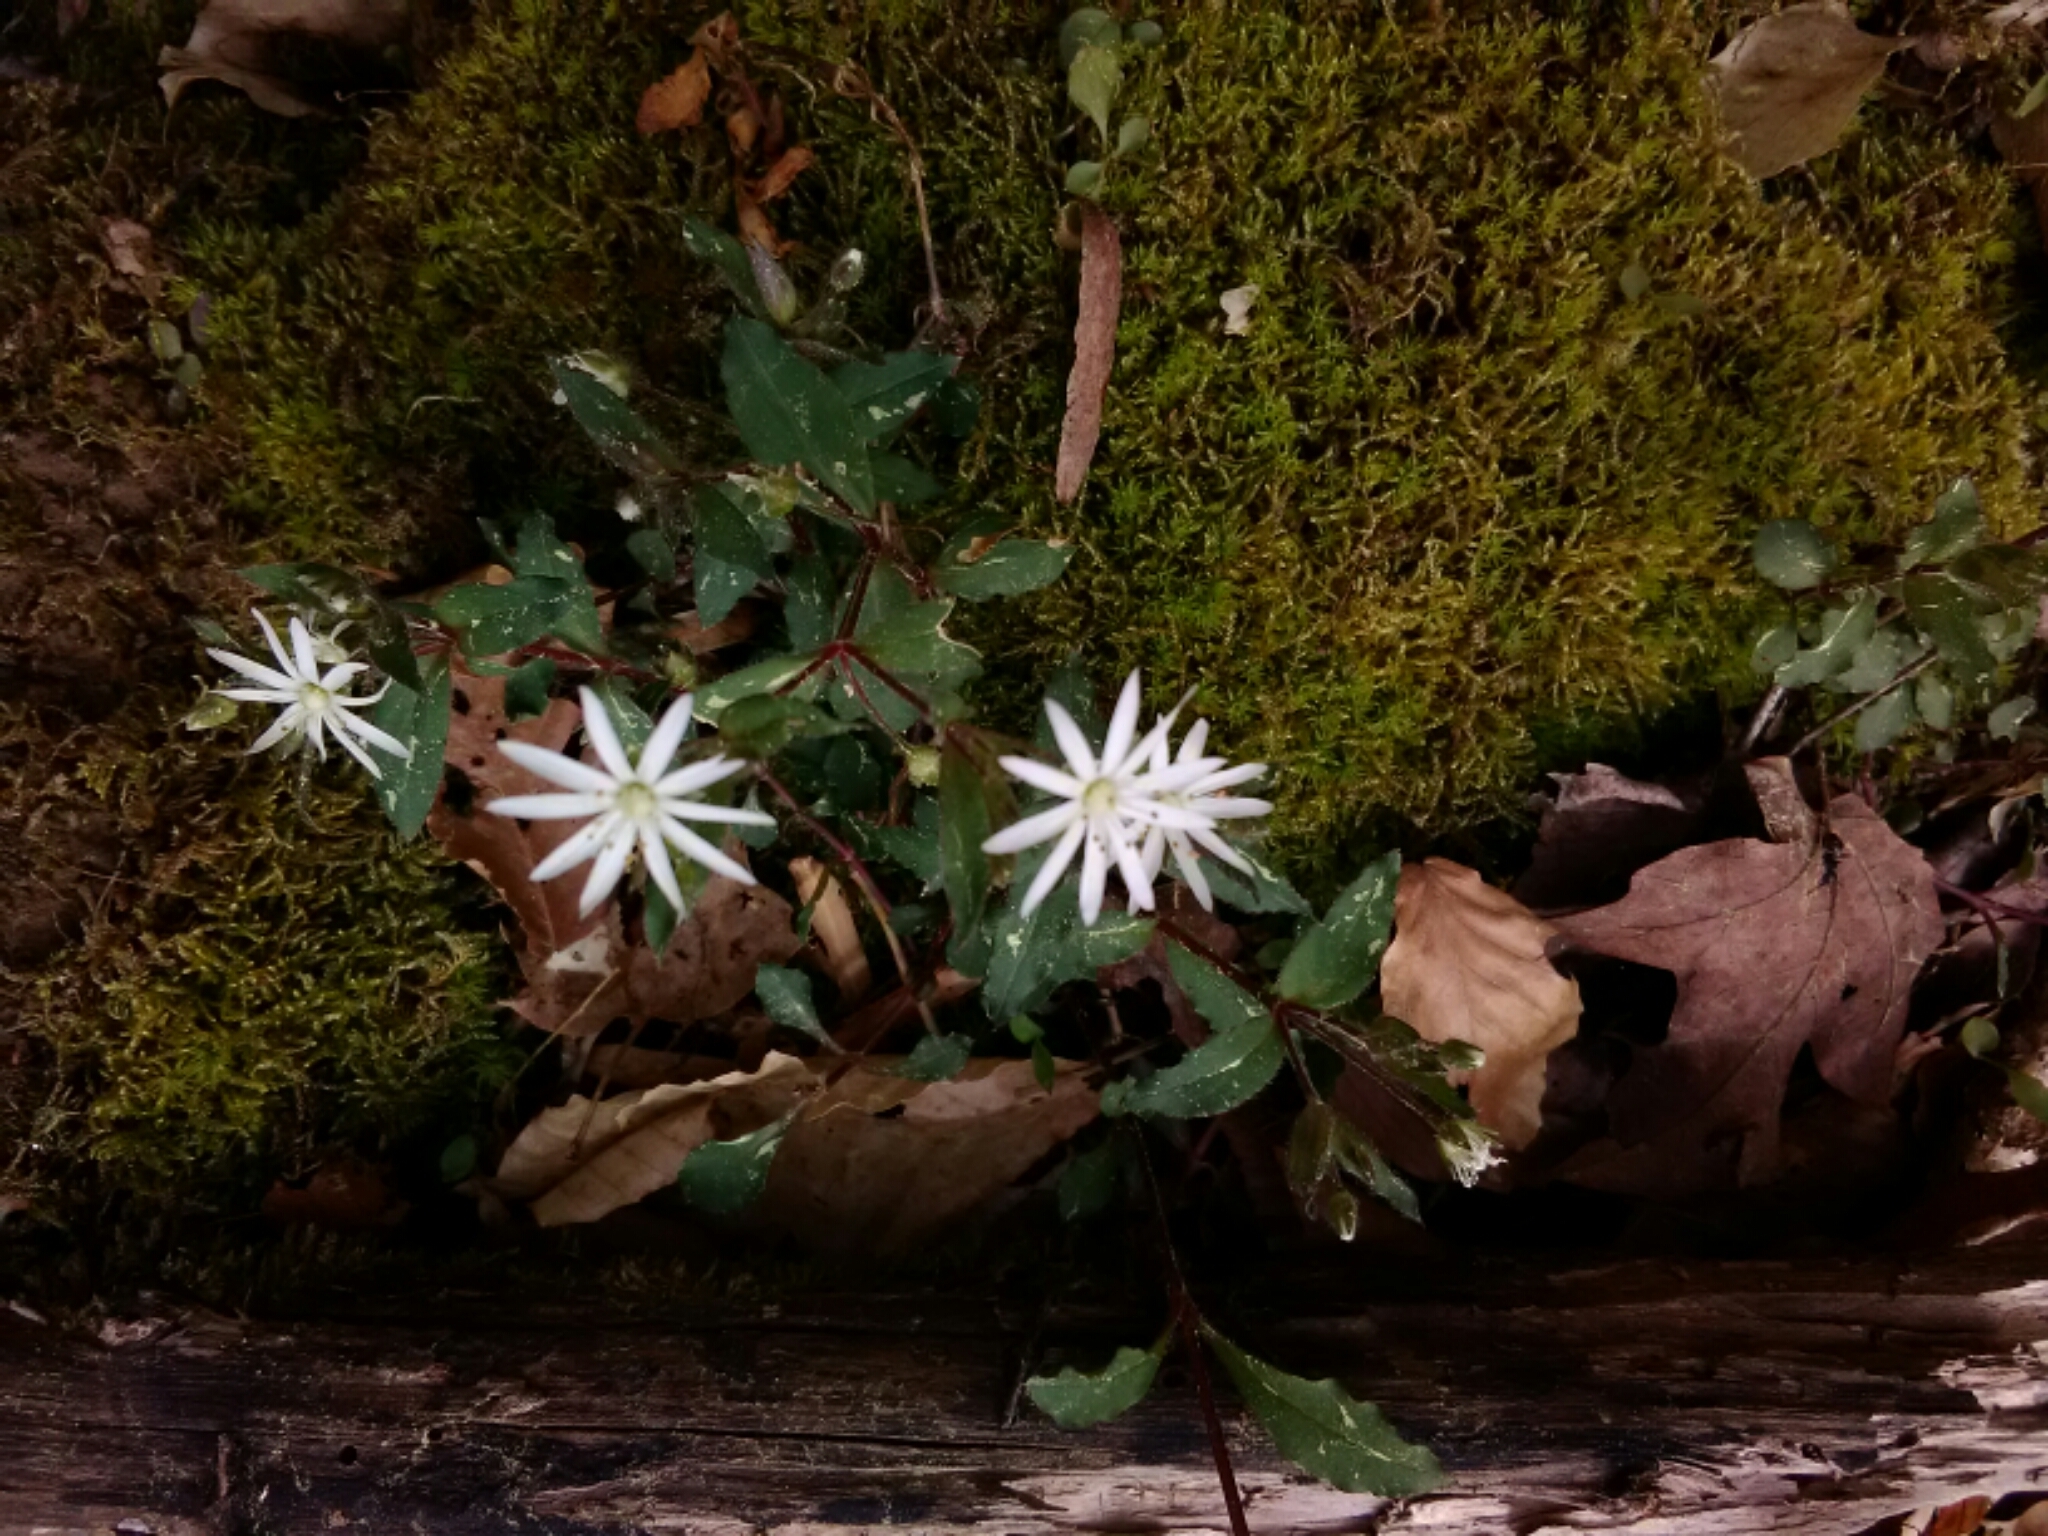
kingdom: Plantae
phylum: Tracheophyta
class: Magnoliopsida
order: Caryophyllales
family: Caryophyllaceae
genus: Stellaria
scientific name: Stellaria pubera
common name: Star chickweed
